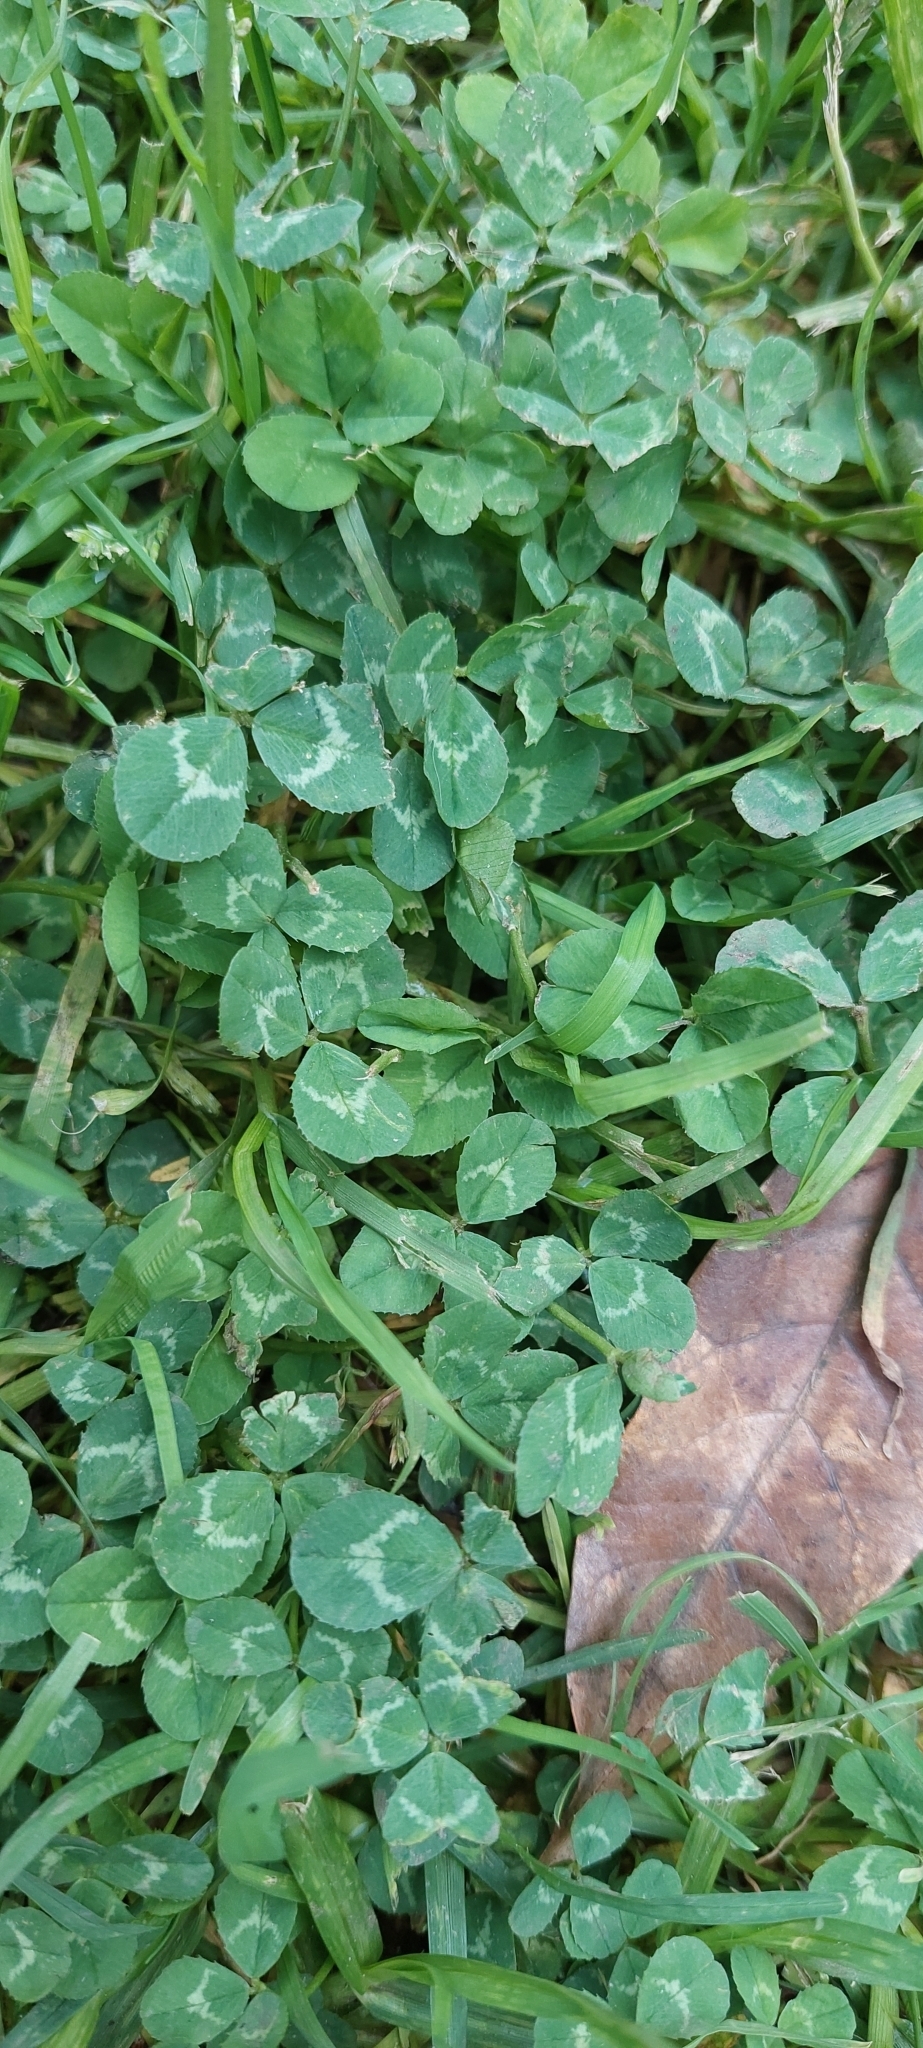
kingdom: Plantae
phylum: Tracheophyta
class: Magnoliopsida
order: Fabales
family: Fabaceae
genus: Trifolium
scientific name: Trifolium repens
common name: White clover
